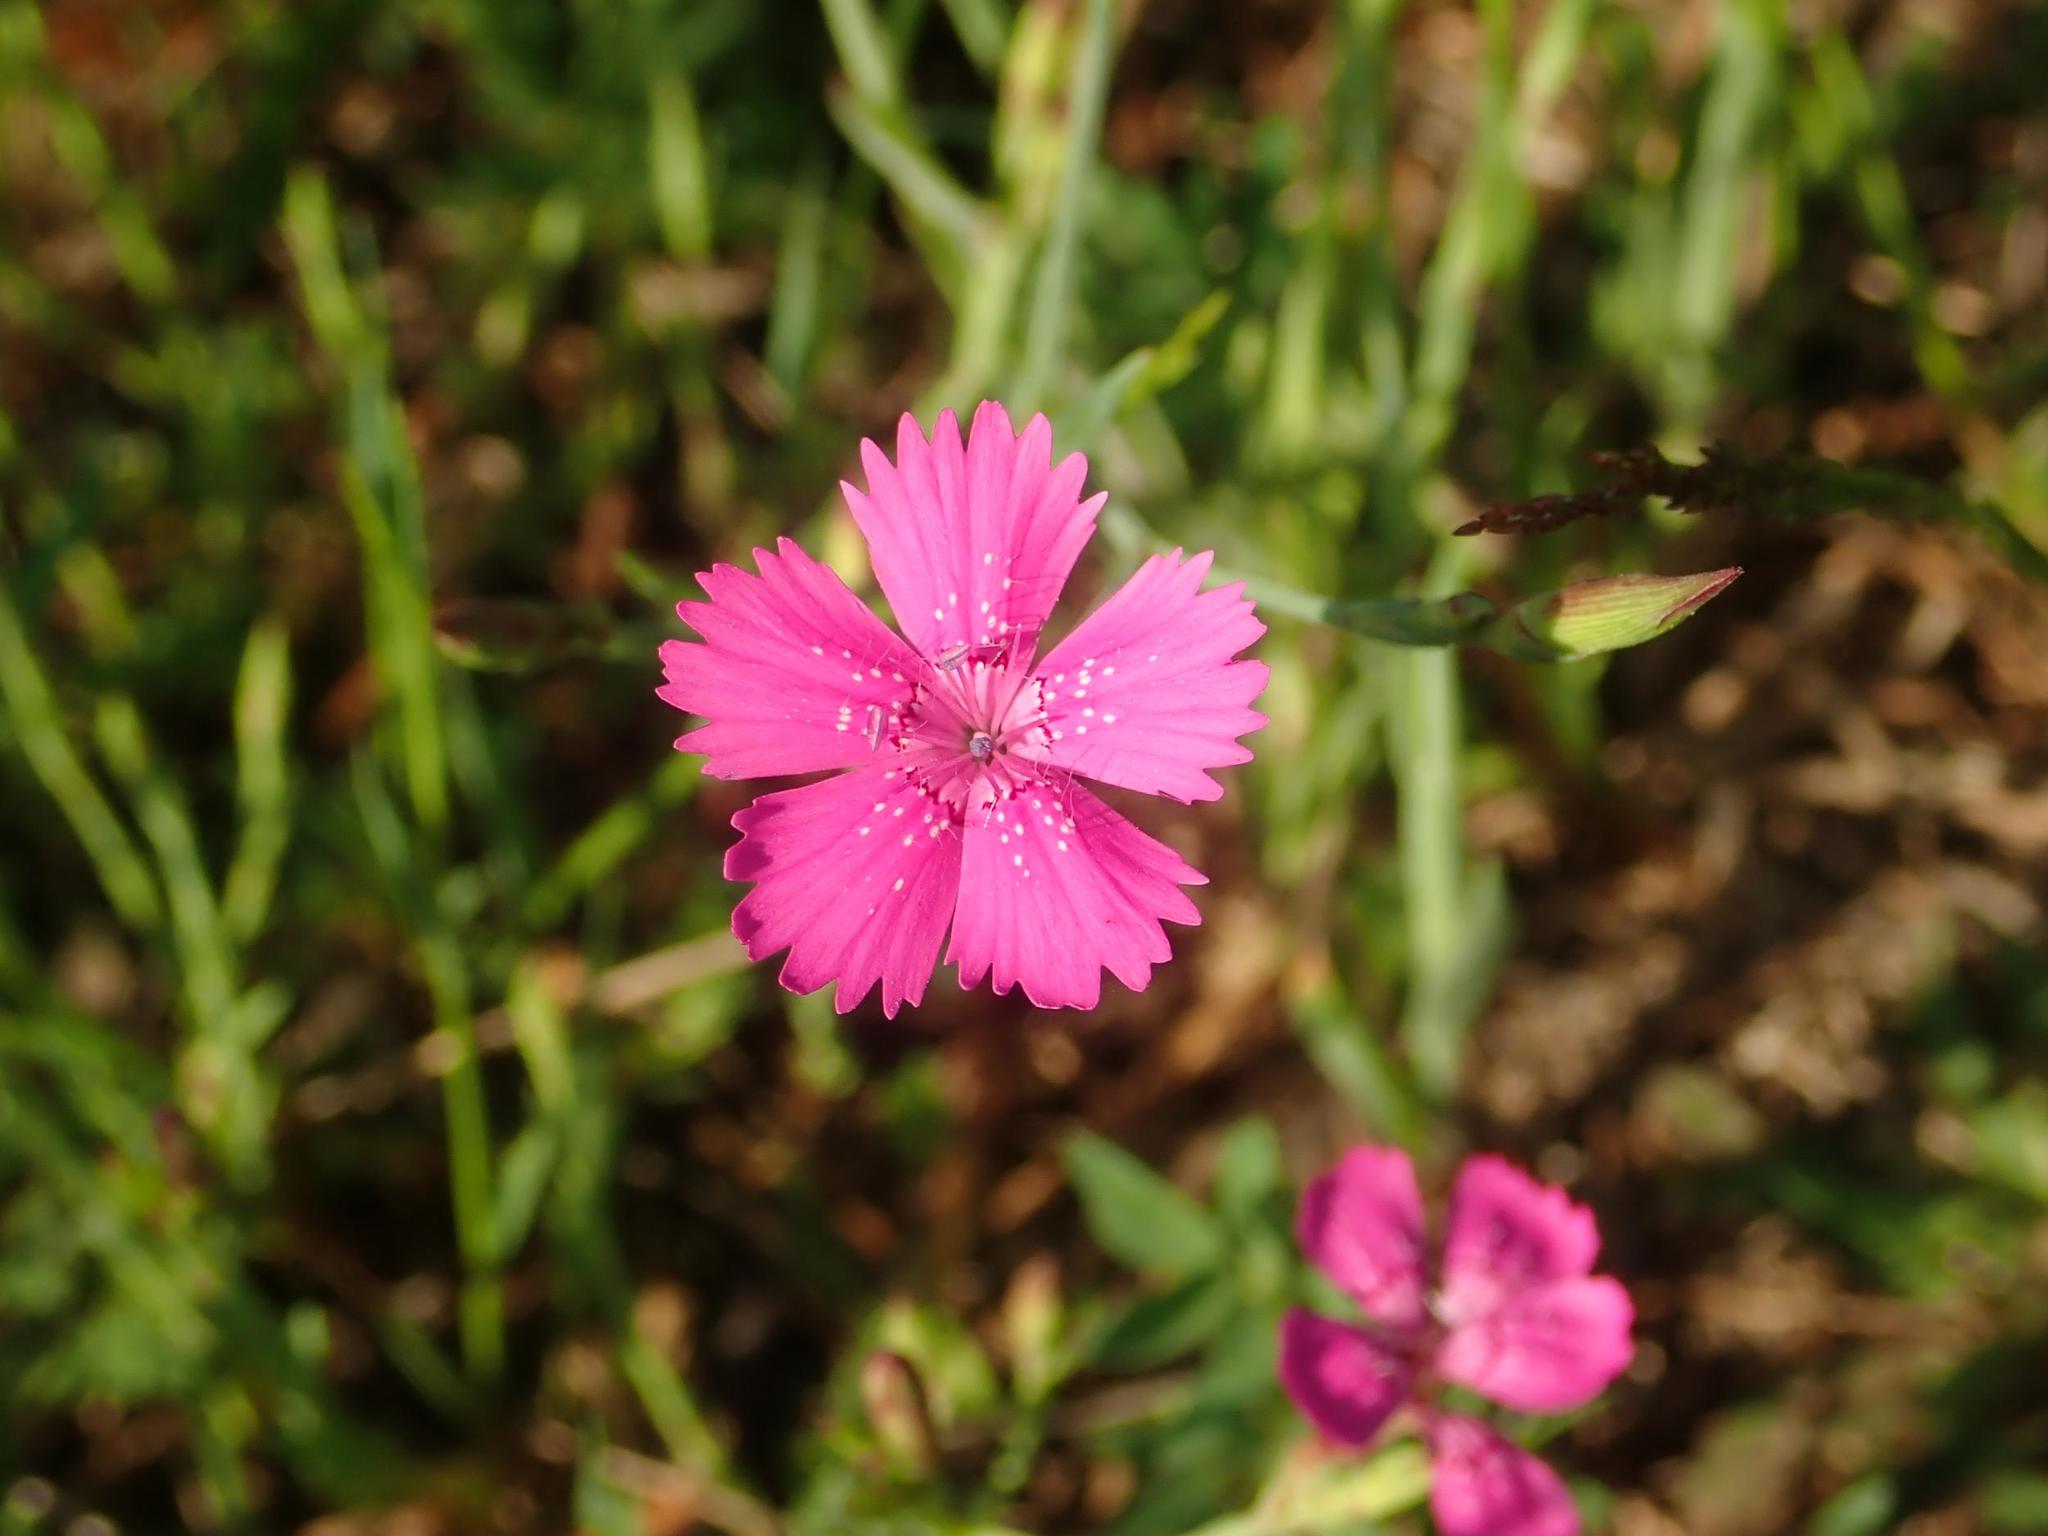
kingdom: Plantae
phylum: Tracheophyta
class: Magnoliopsida
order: Caryophyllales
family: Caryophyllaceae
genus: Dianthus
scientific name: Dianthus deltoides
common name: Maiden pink
